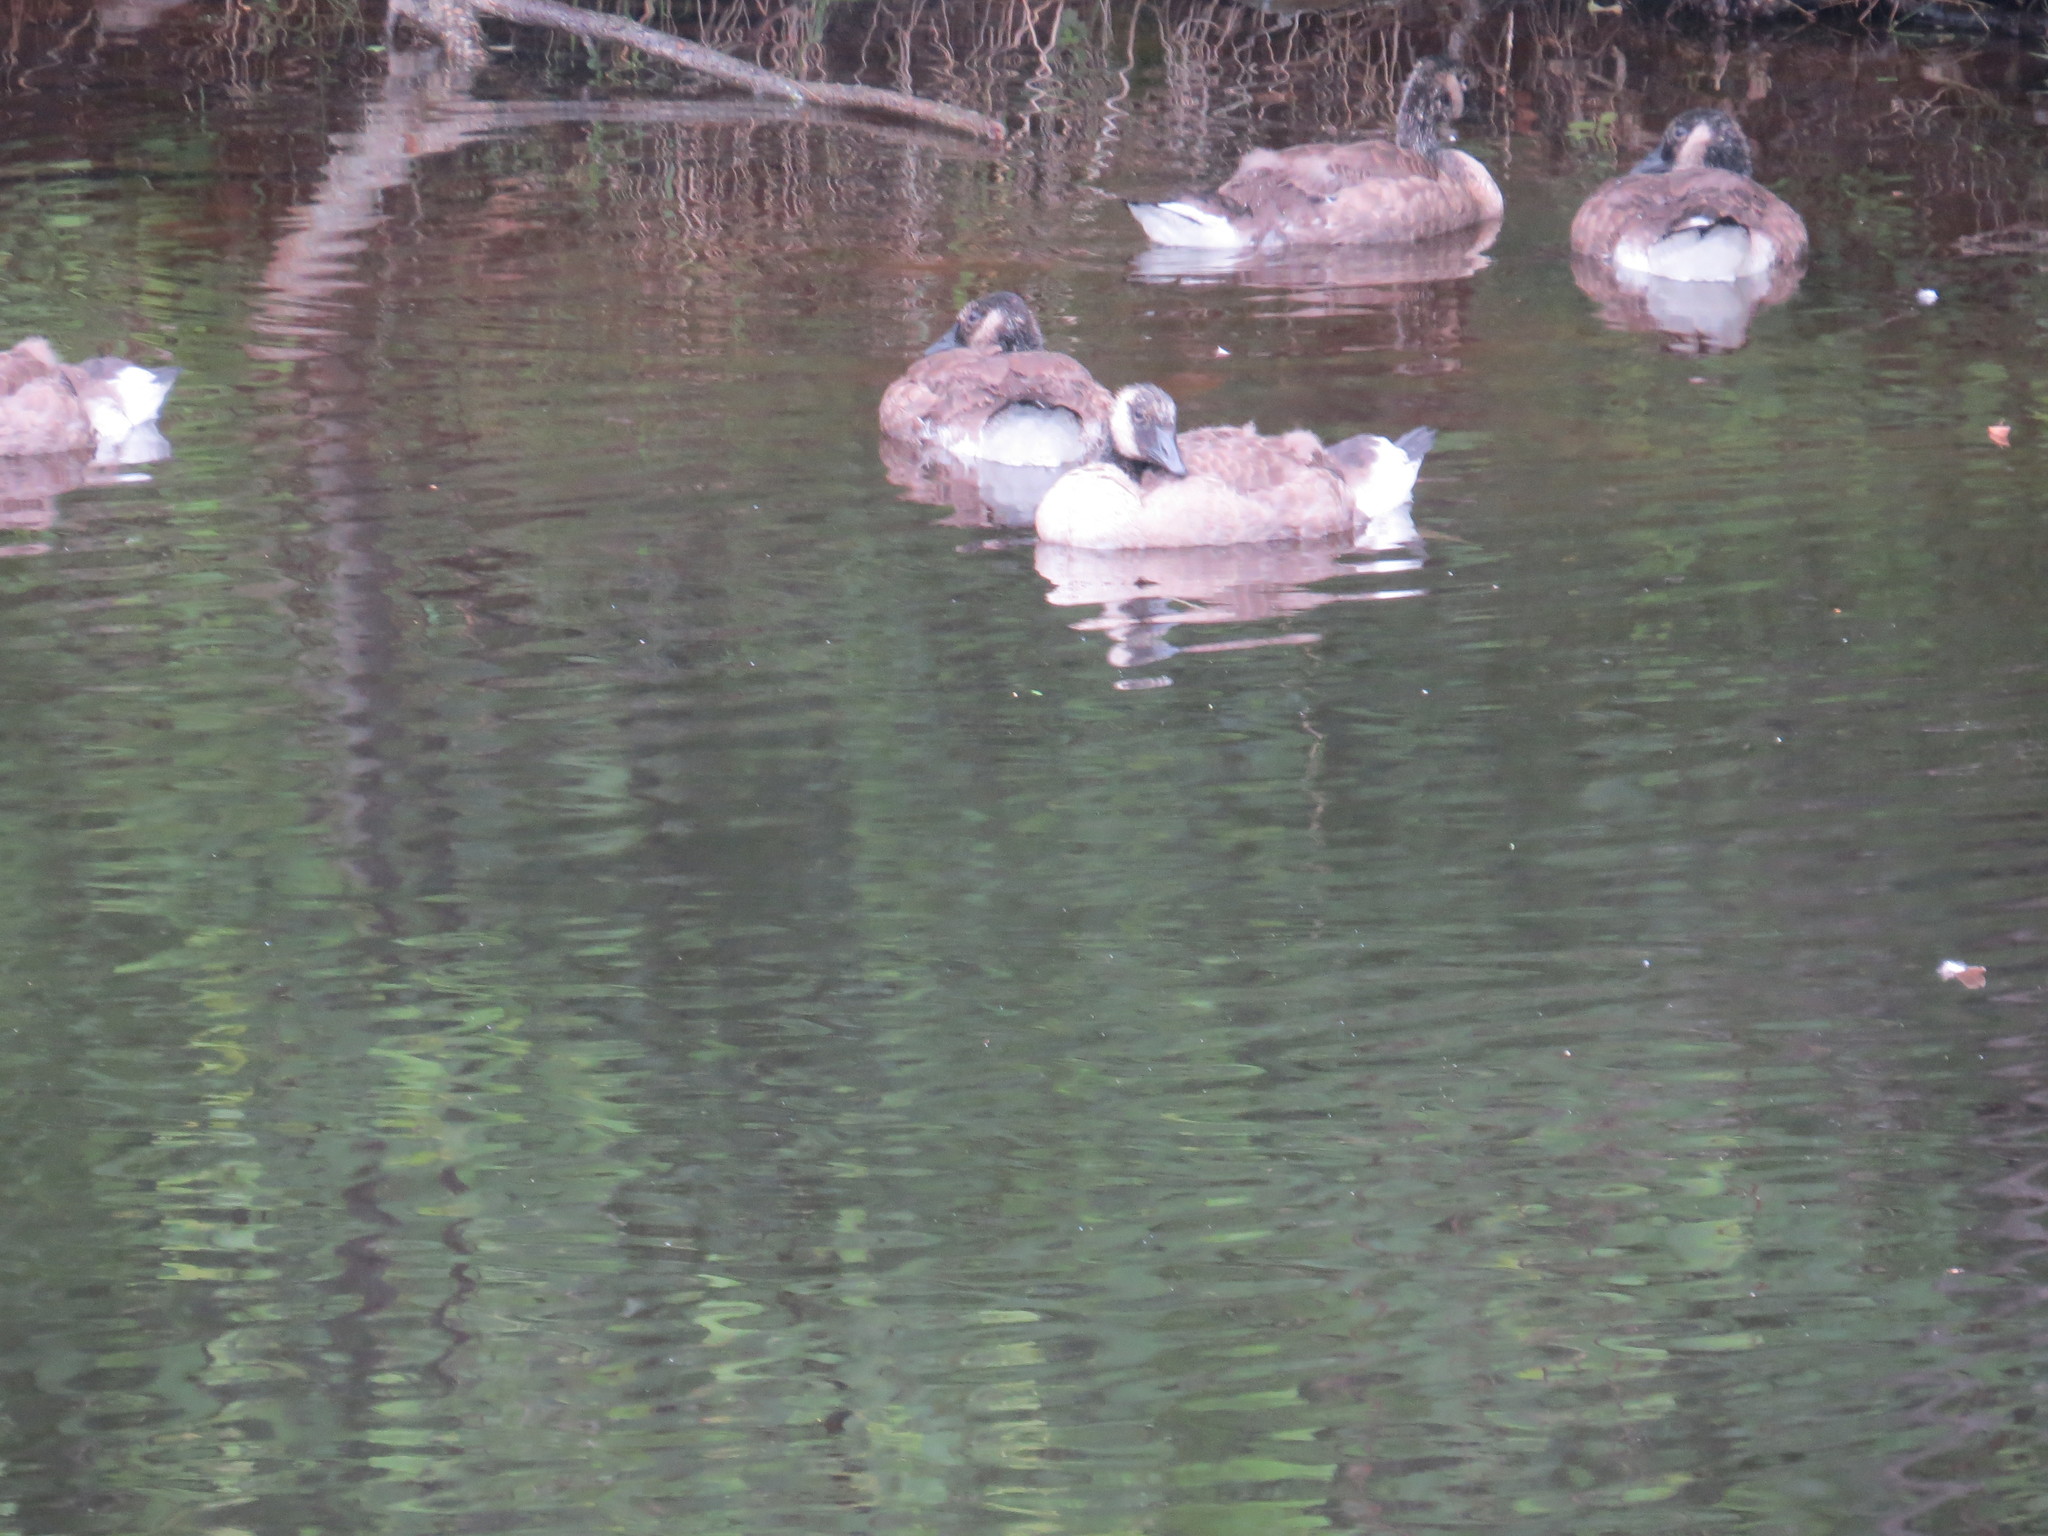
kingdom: Animalia
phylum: Chordata
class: Aves
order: Anseriformes
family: Anatidae
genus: Branta
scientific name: Branta canadensis
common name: Canada goose
